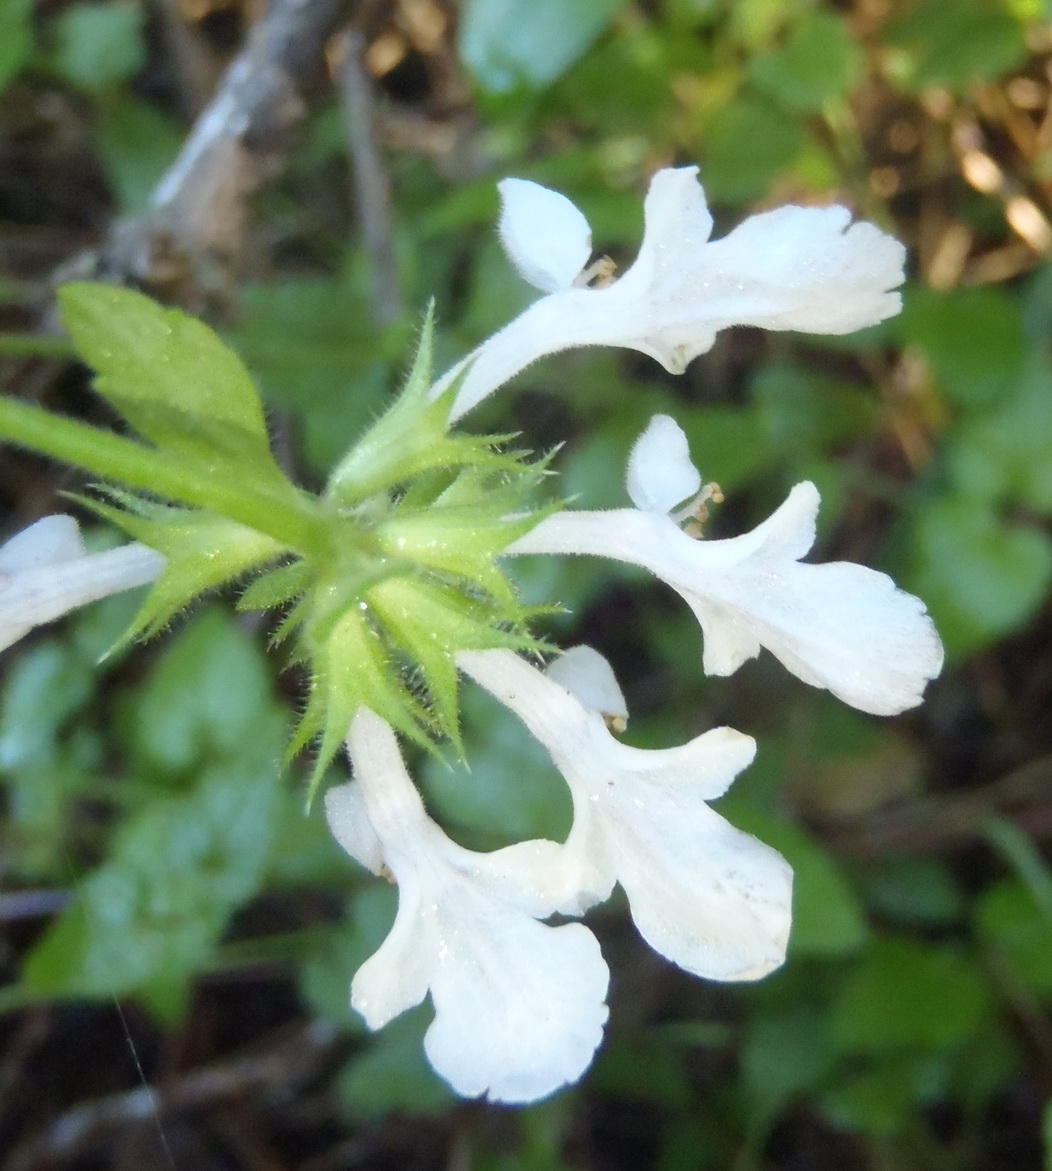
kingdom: Plantae
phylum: Tracheophyta
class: Magnoliopsida
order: Lamiales
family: Lamiaceae
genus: Stachys
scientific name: Stachys aethiopica
